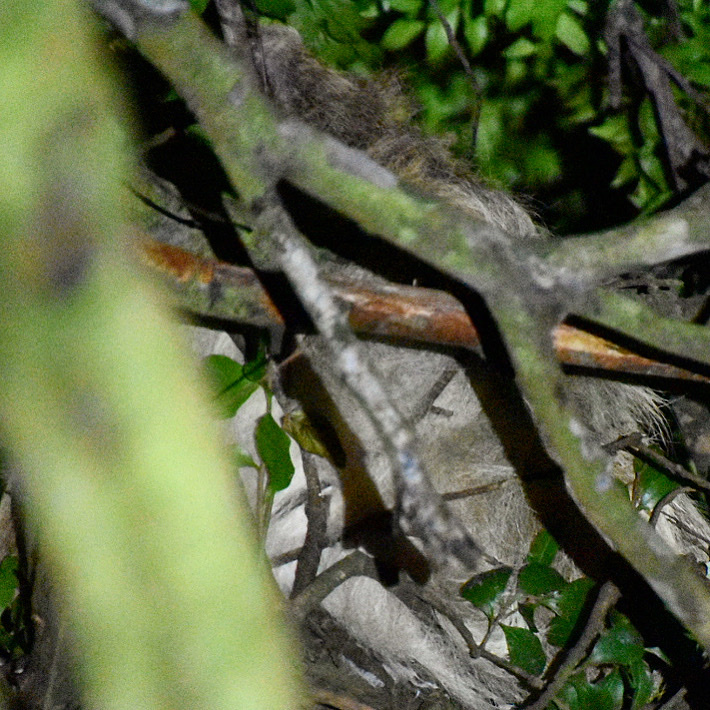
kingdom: Animalia
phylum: Chordata
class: Mammalia
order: Pilosa
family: Megalonychidae
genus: Choloepus
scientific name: Choloepus hoffmanni
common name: Hoffmann's two-toed sloth
